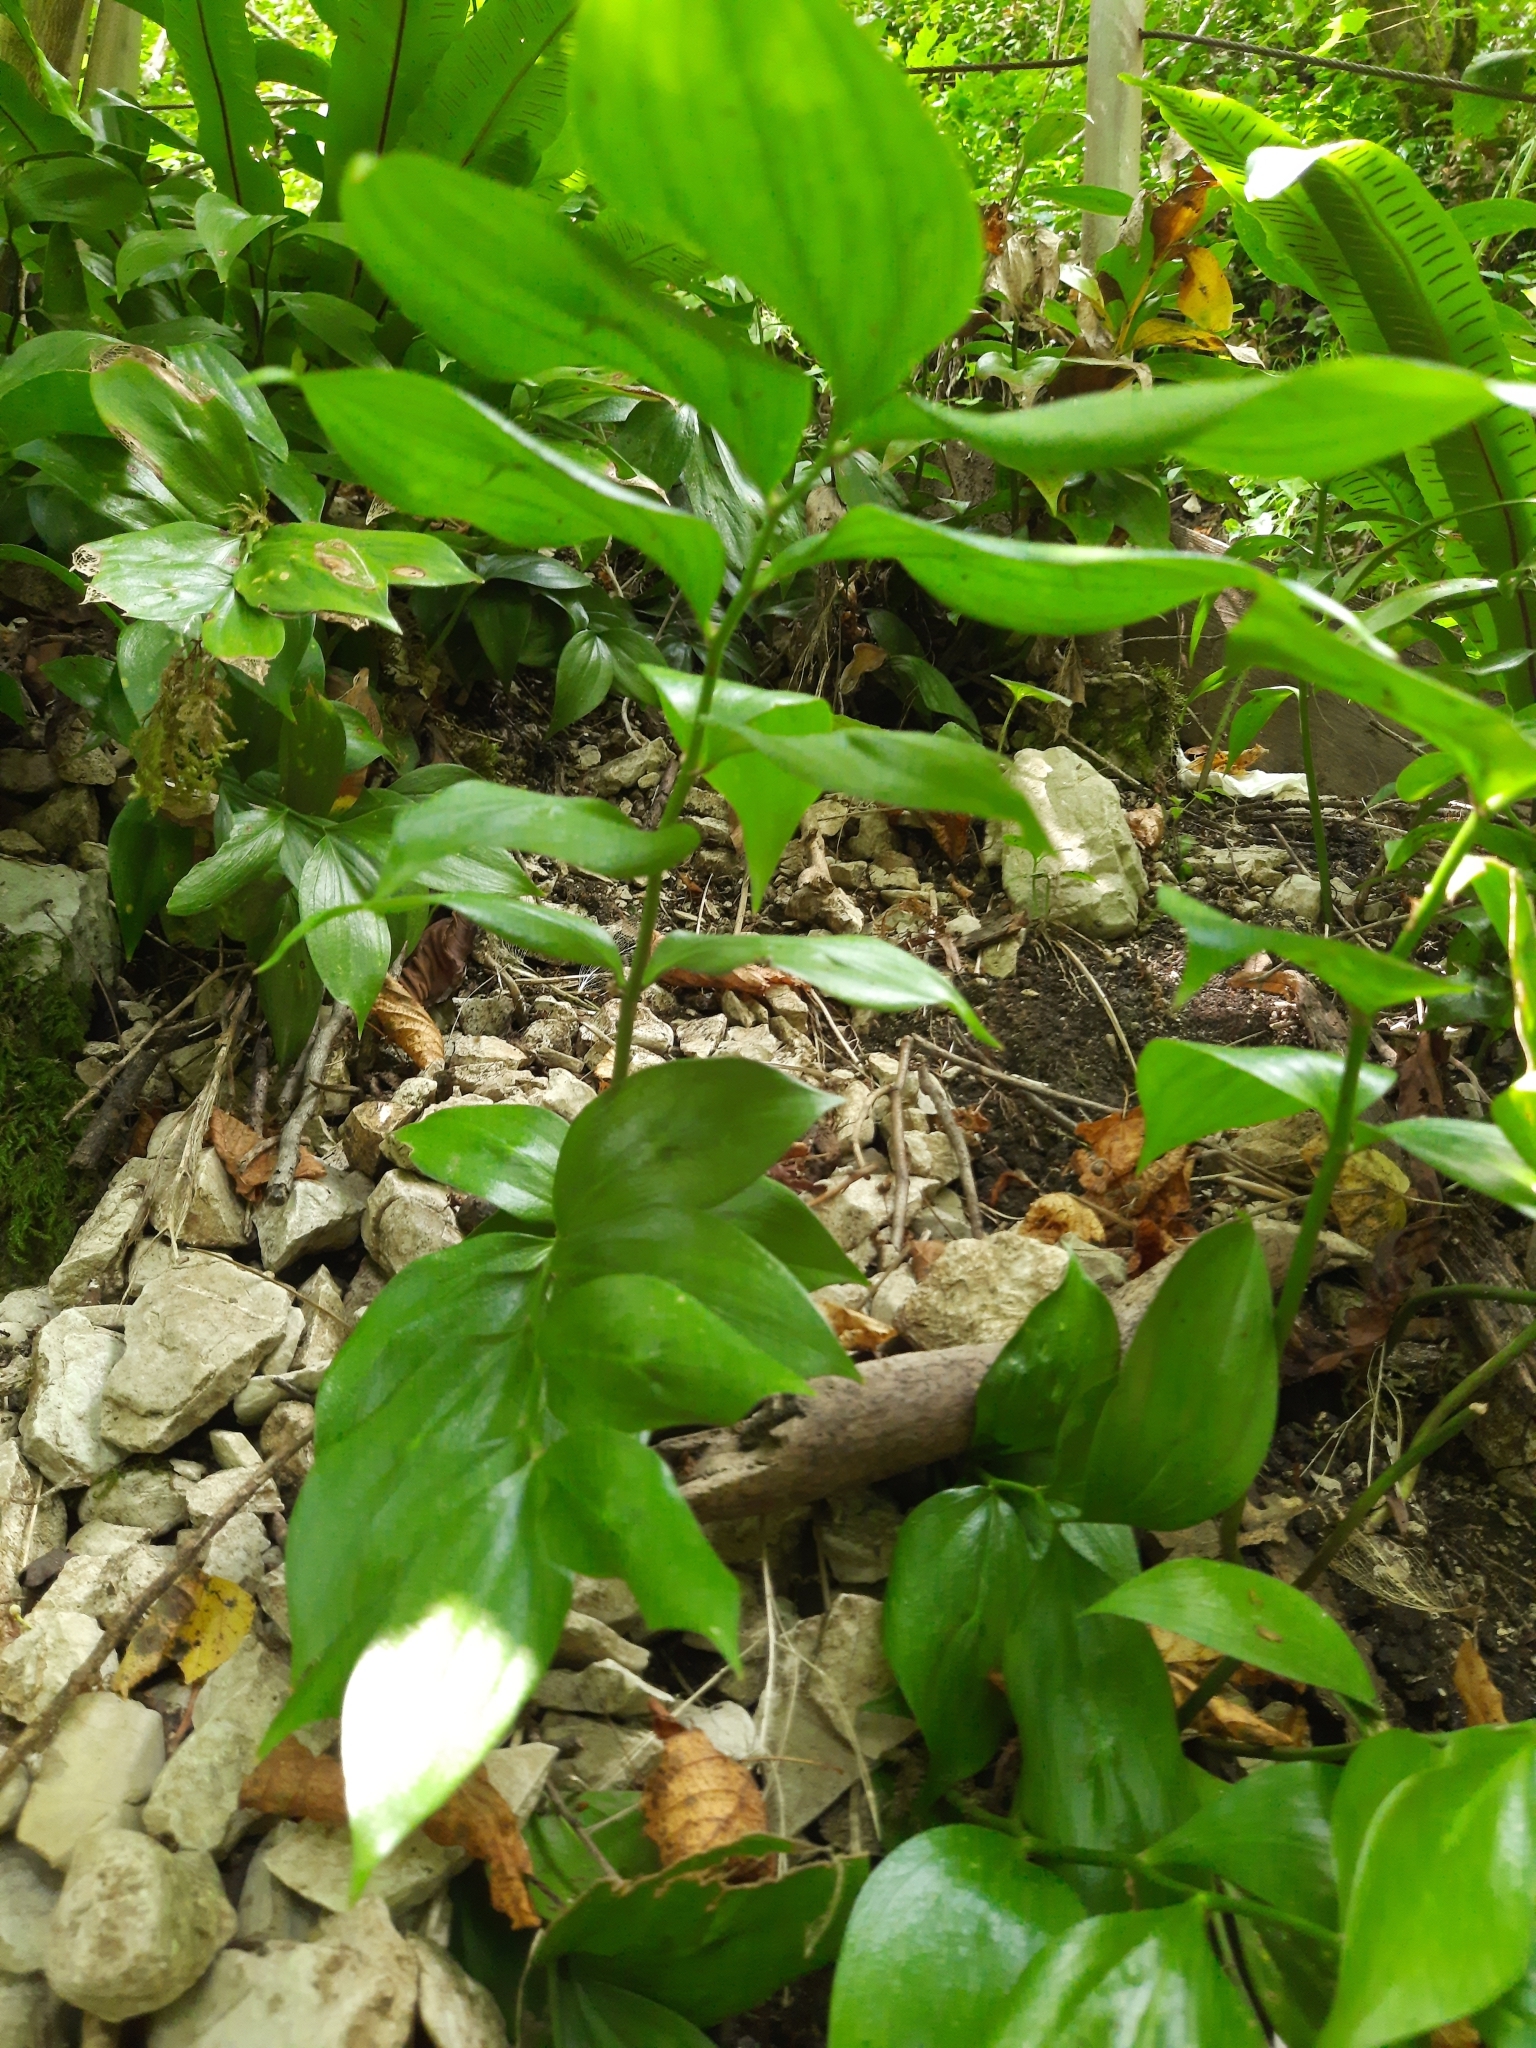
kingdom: Plantae
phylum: Tracheophyta
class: Liliopsida
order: Asparagales
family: Asparagaceae
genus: Ruscus
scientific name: Ruscus colchicus
